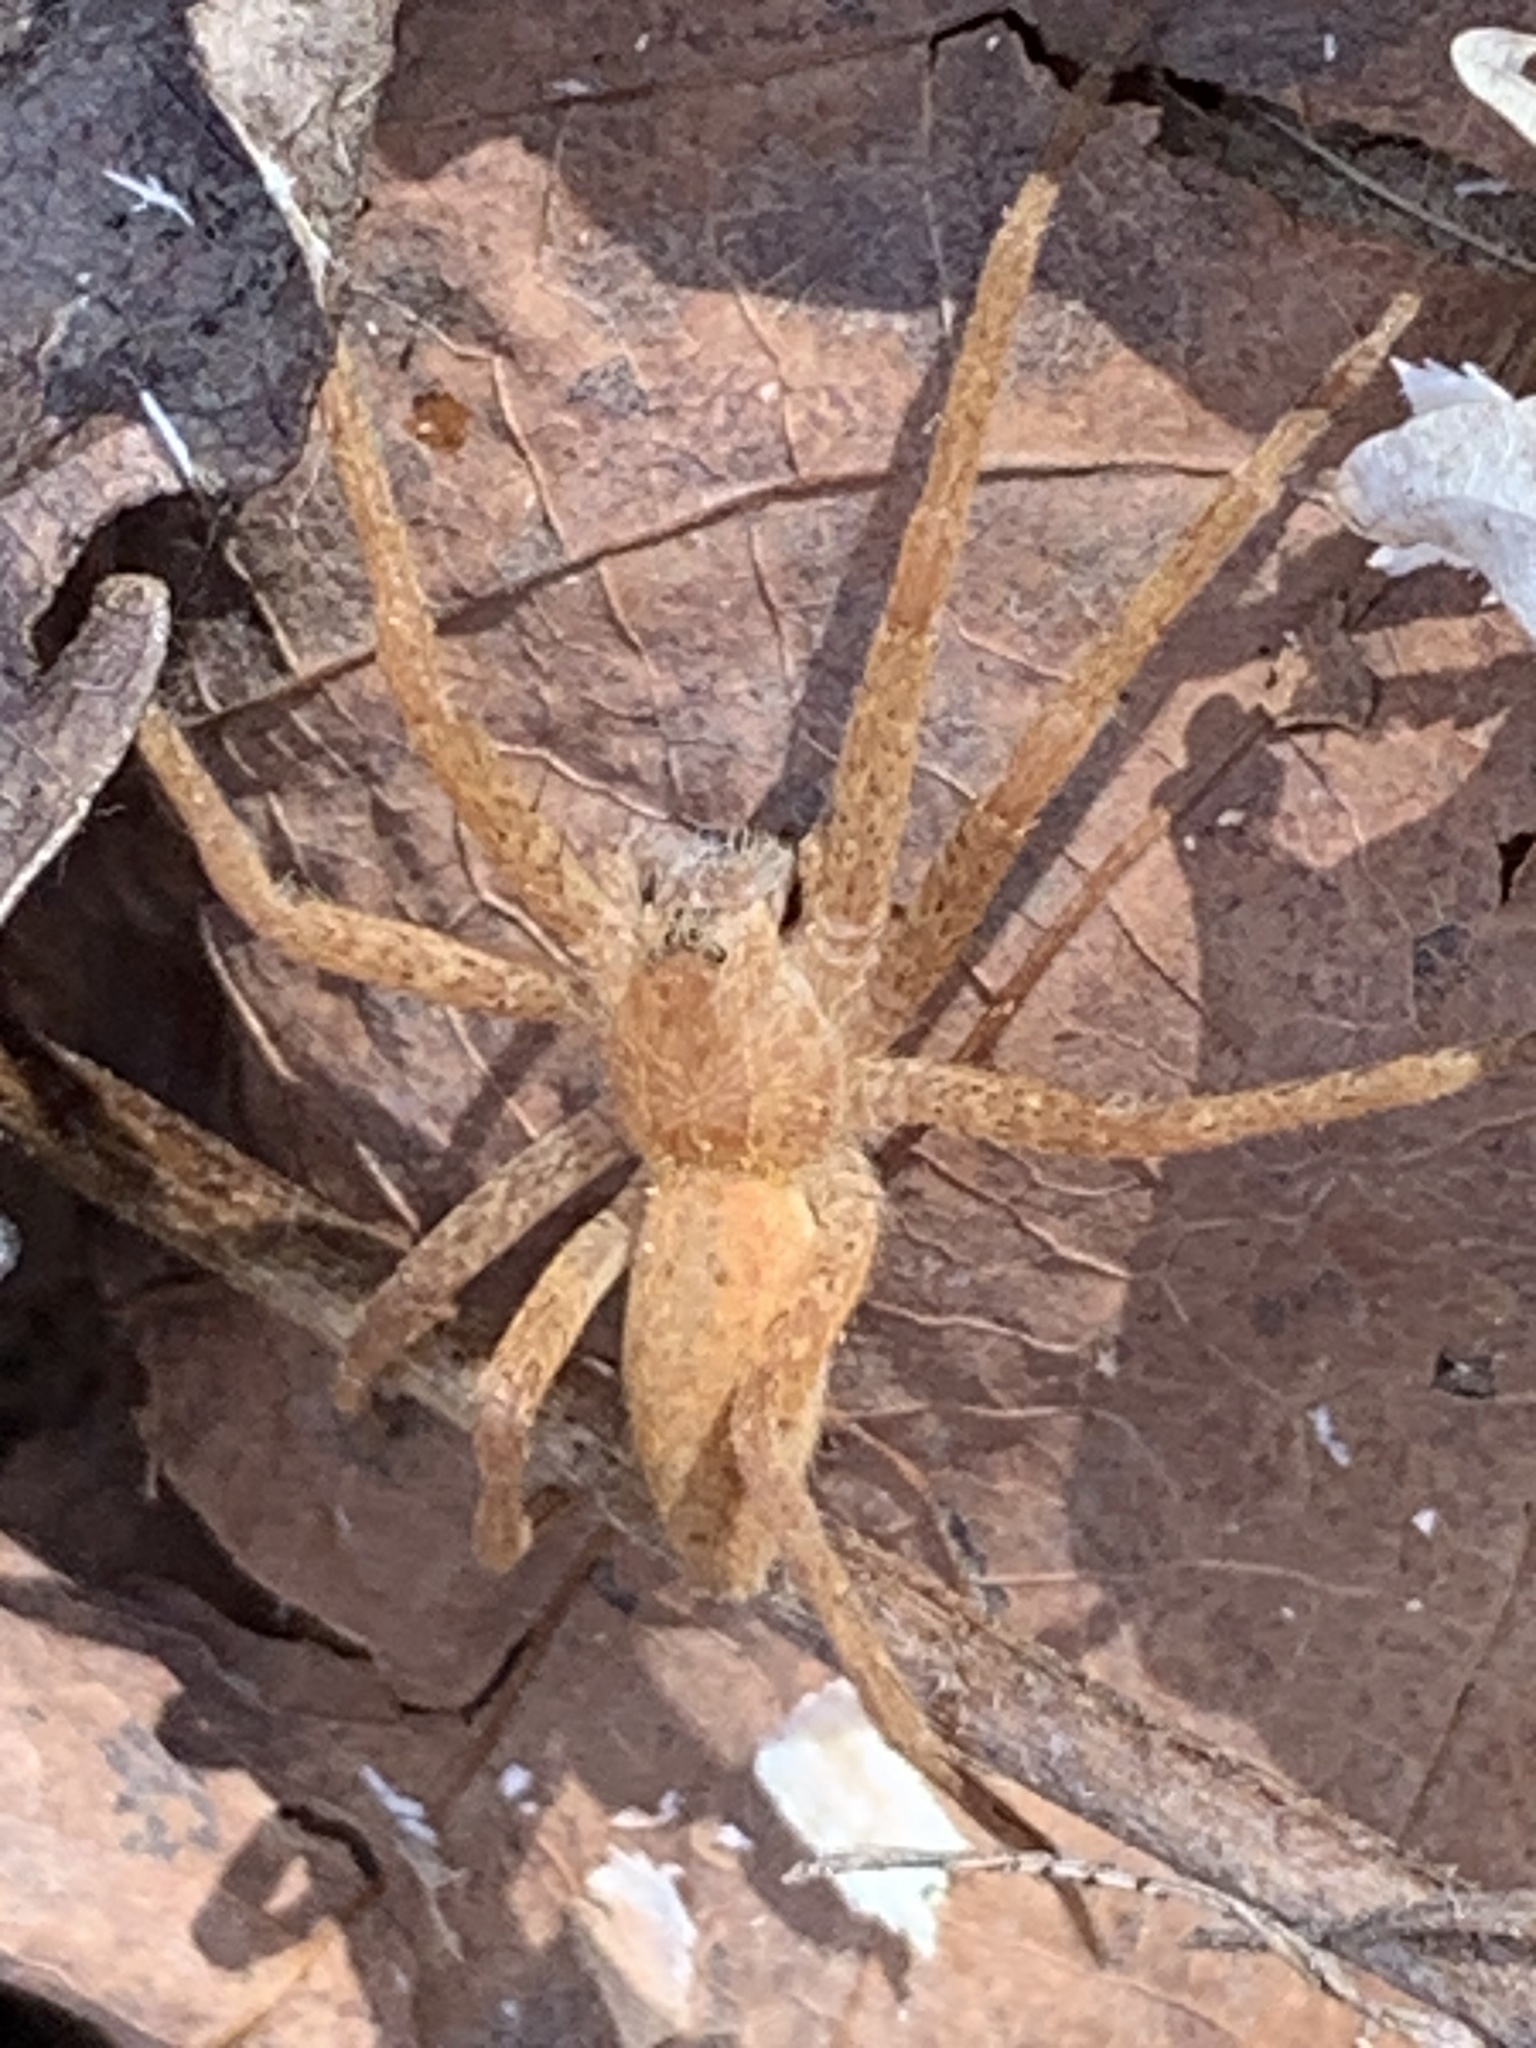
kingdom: Animalia
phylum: Arthropoda
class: Arachnida
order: Araneae
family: Pisauridae
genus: Pisaurina
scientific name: Pisaurina mira
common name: American nursery web spider
